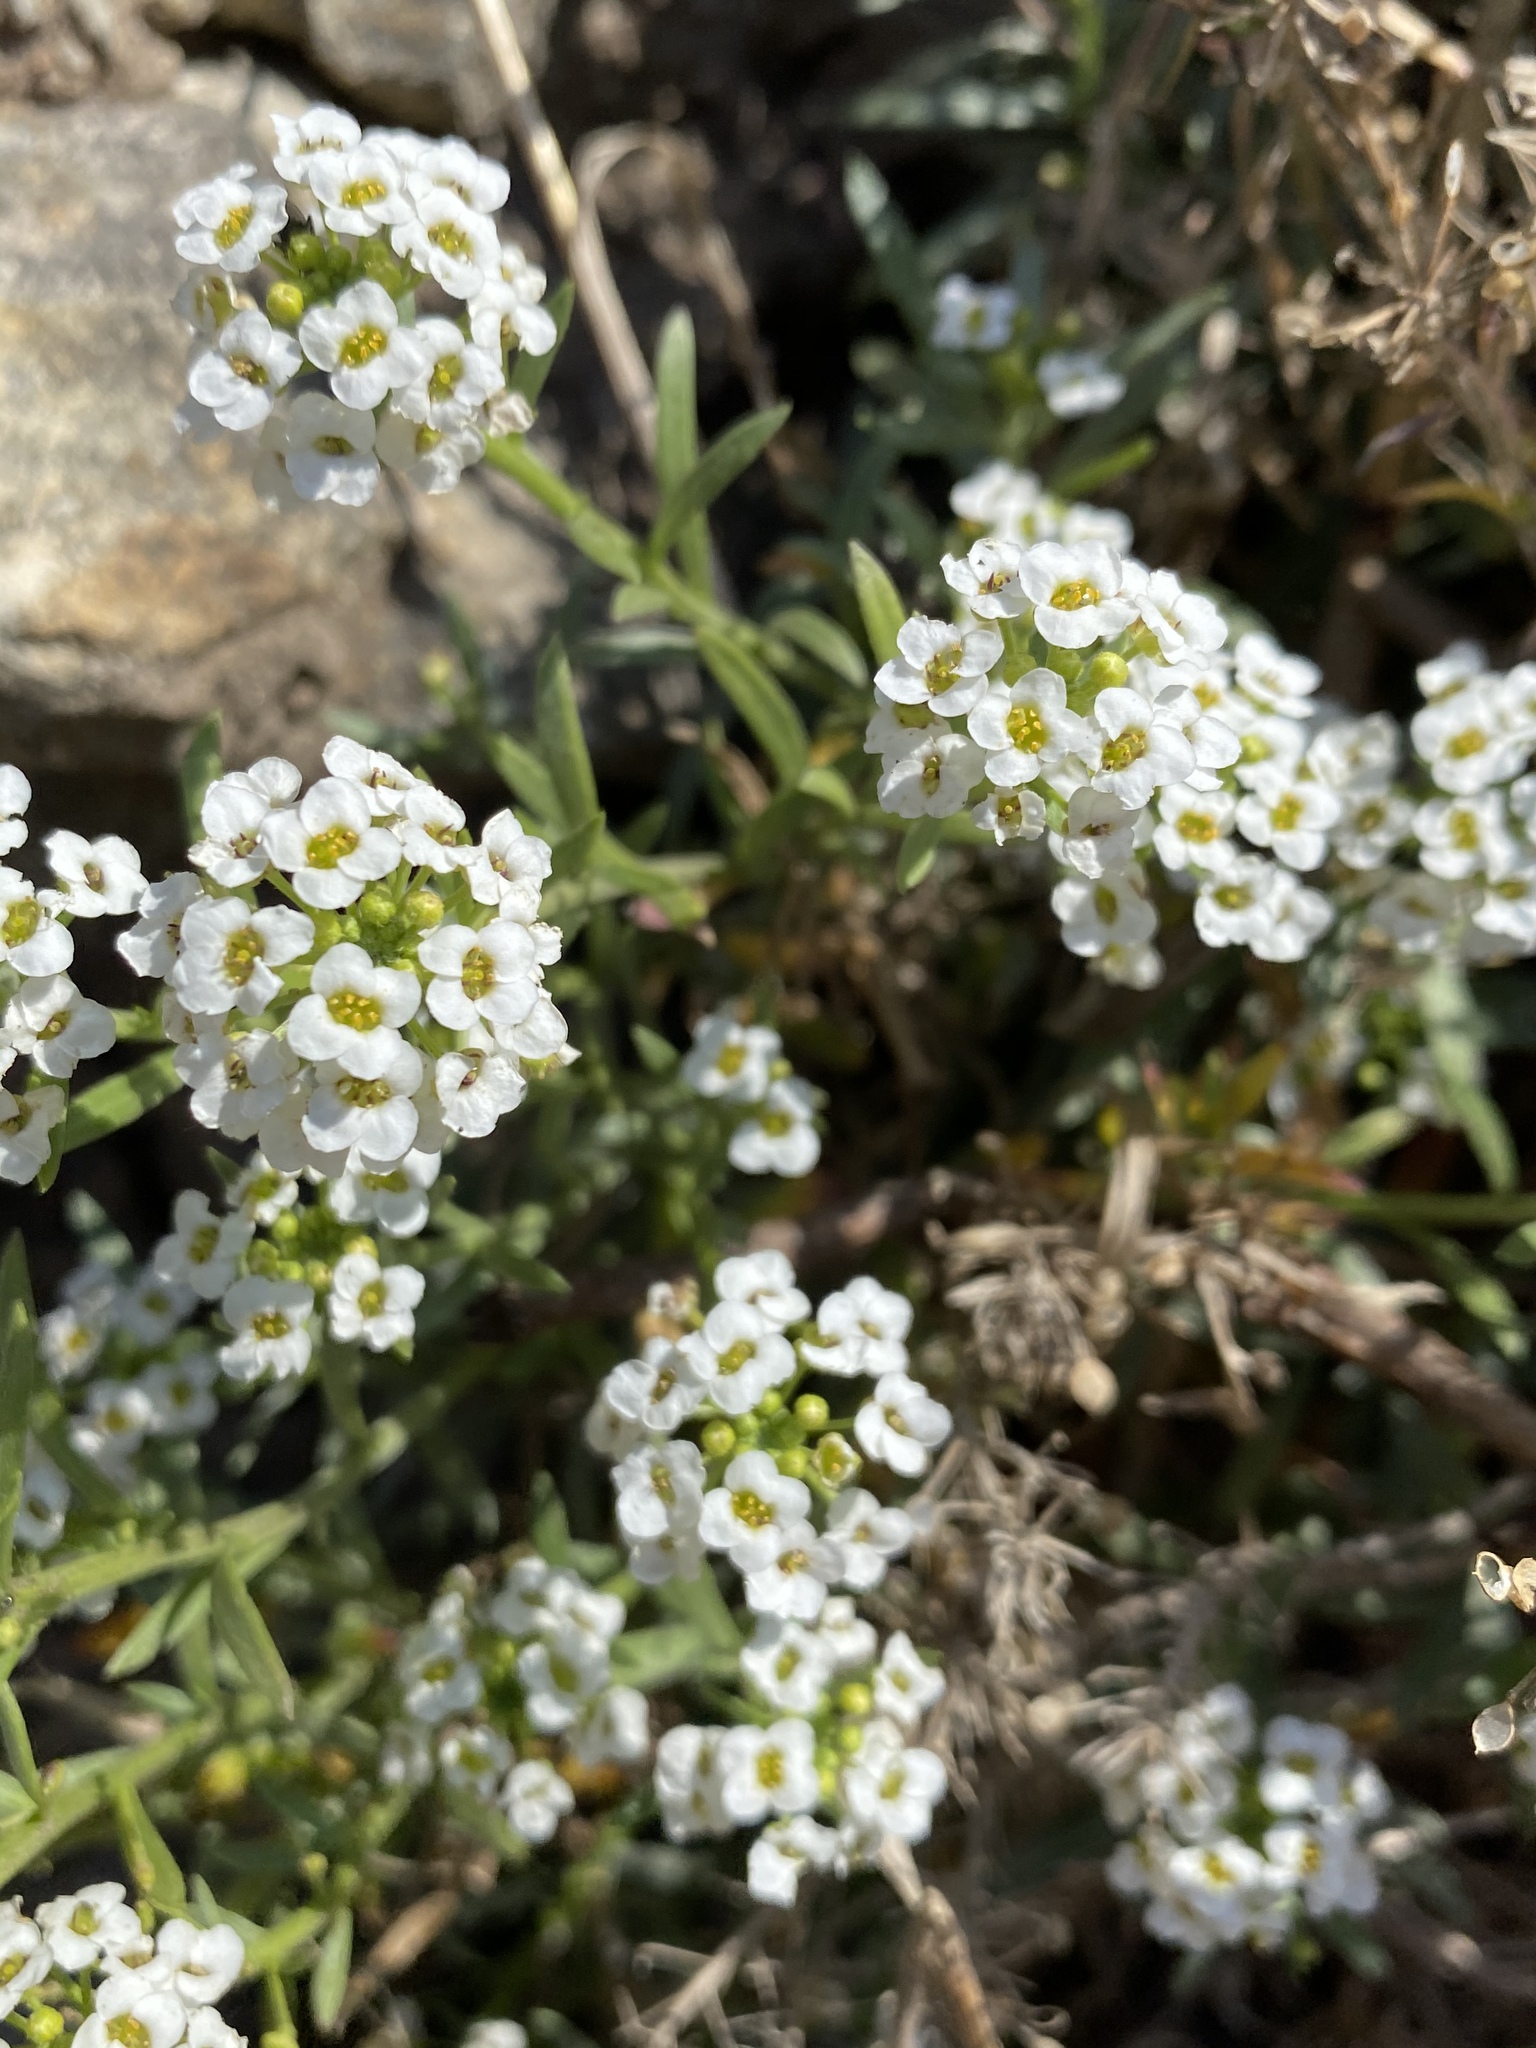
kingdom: Plantae
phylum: Tracheophyta
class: Magnoliopsida
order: Brassicales
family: Brassicaceae
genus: Lobularia
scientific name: Lobularia maritima
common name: Sweet alison
